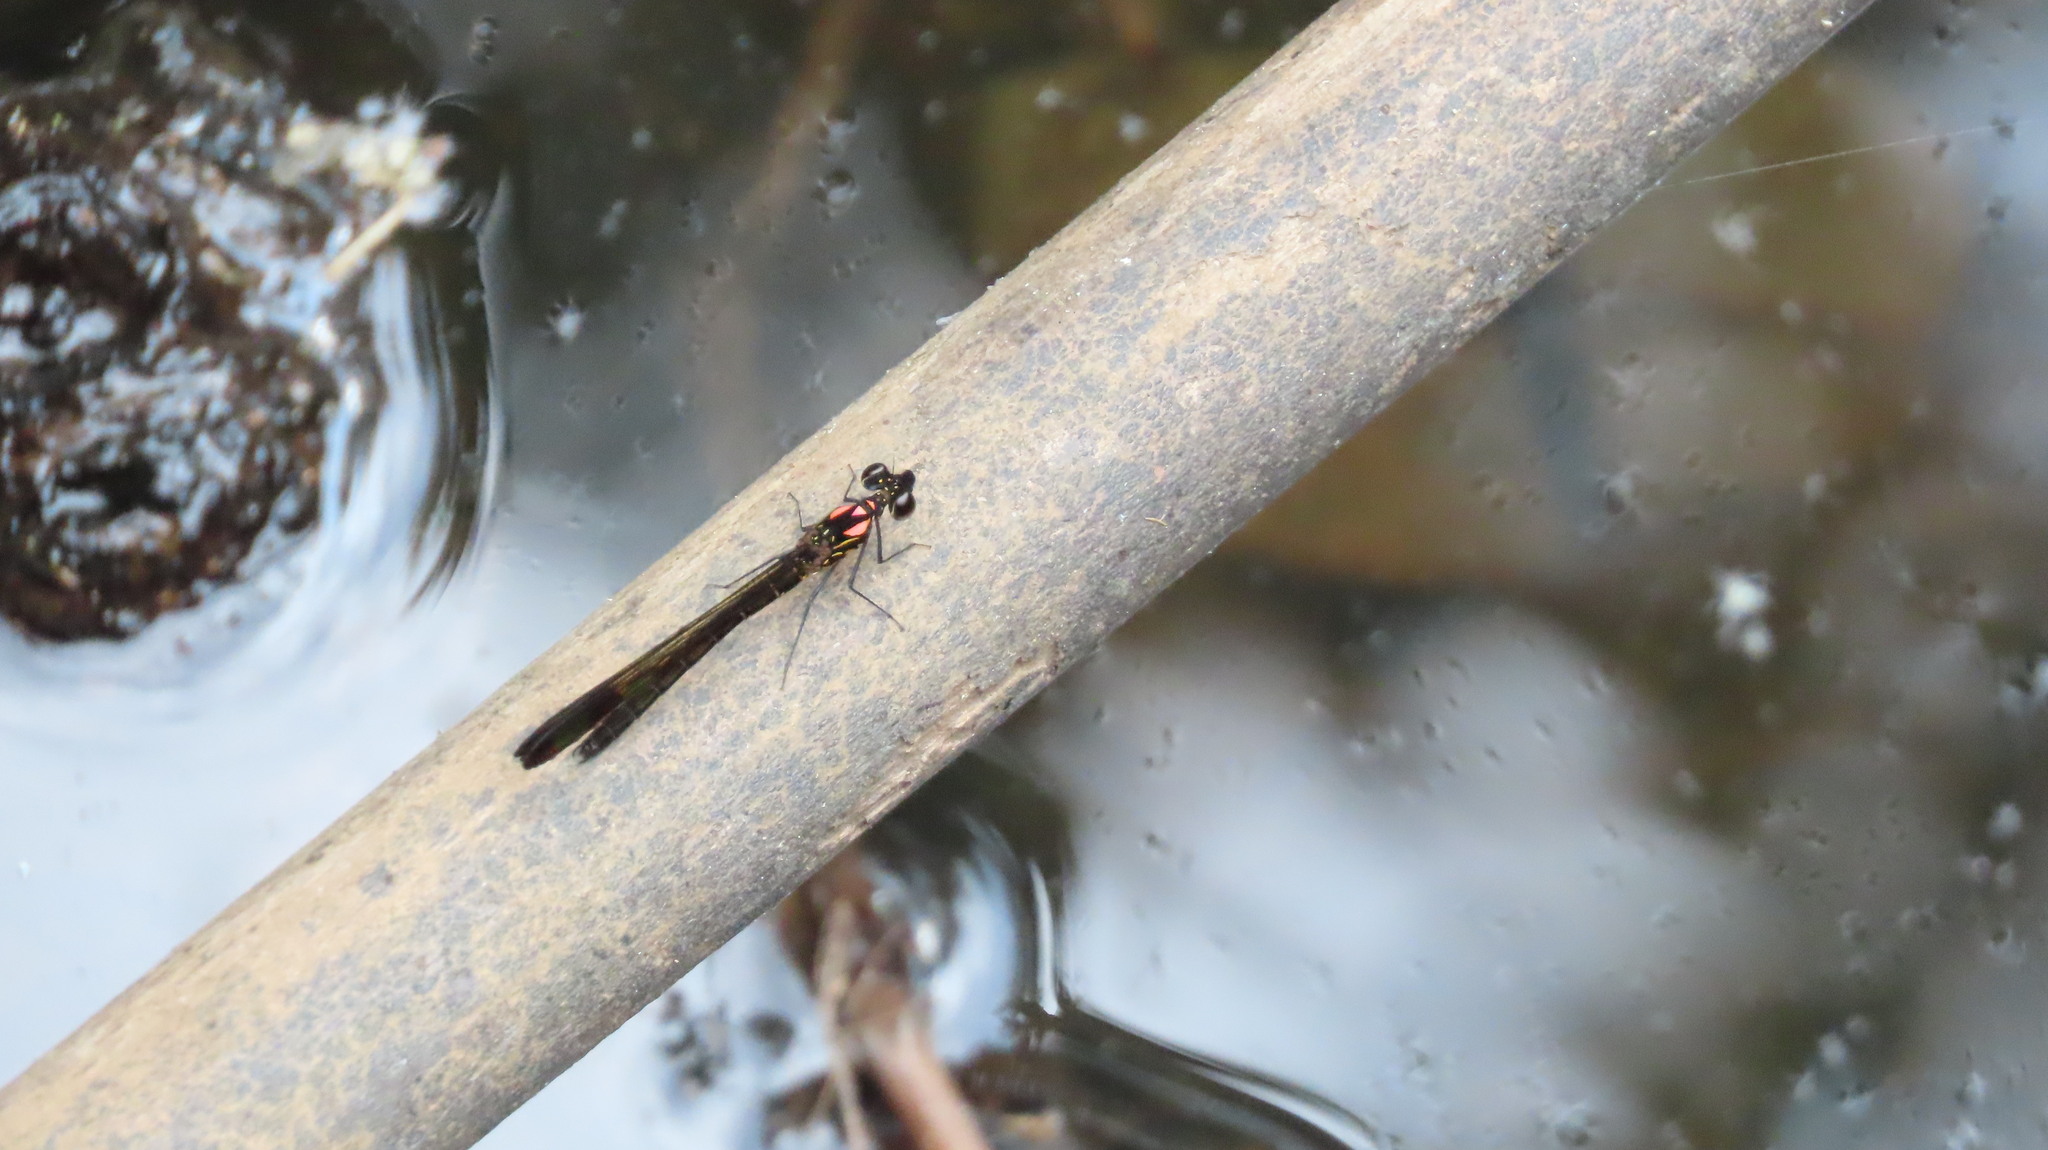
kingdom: Animalia
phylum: Arthropoda
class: Insecta
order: Odonata
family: Chlorocyphidae
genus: Heliocypha
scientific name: Heliocypha bisignata
